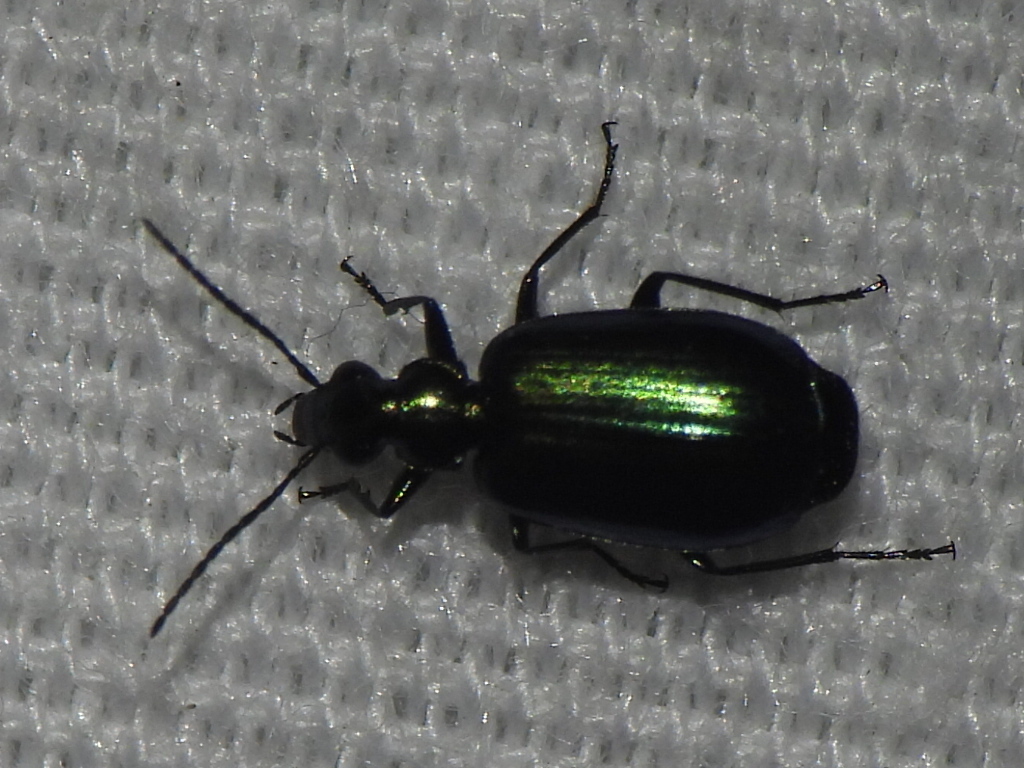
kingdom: Animalia
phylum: Arthropoda
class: Insecta
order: Coleoptera
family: Carabidae
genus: Lebia
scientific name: Lebia viridis
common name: Flower lebia beetle
